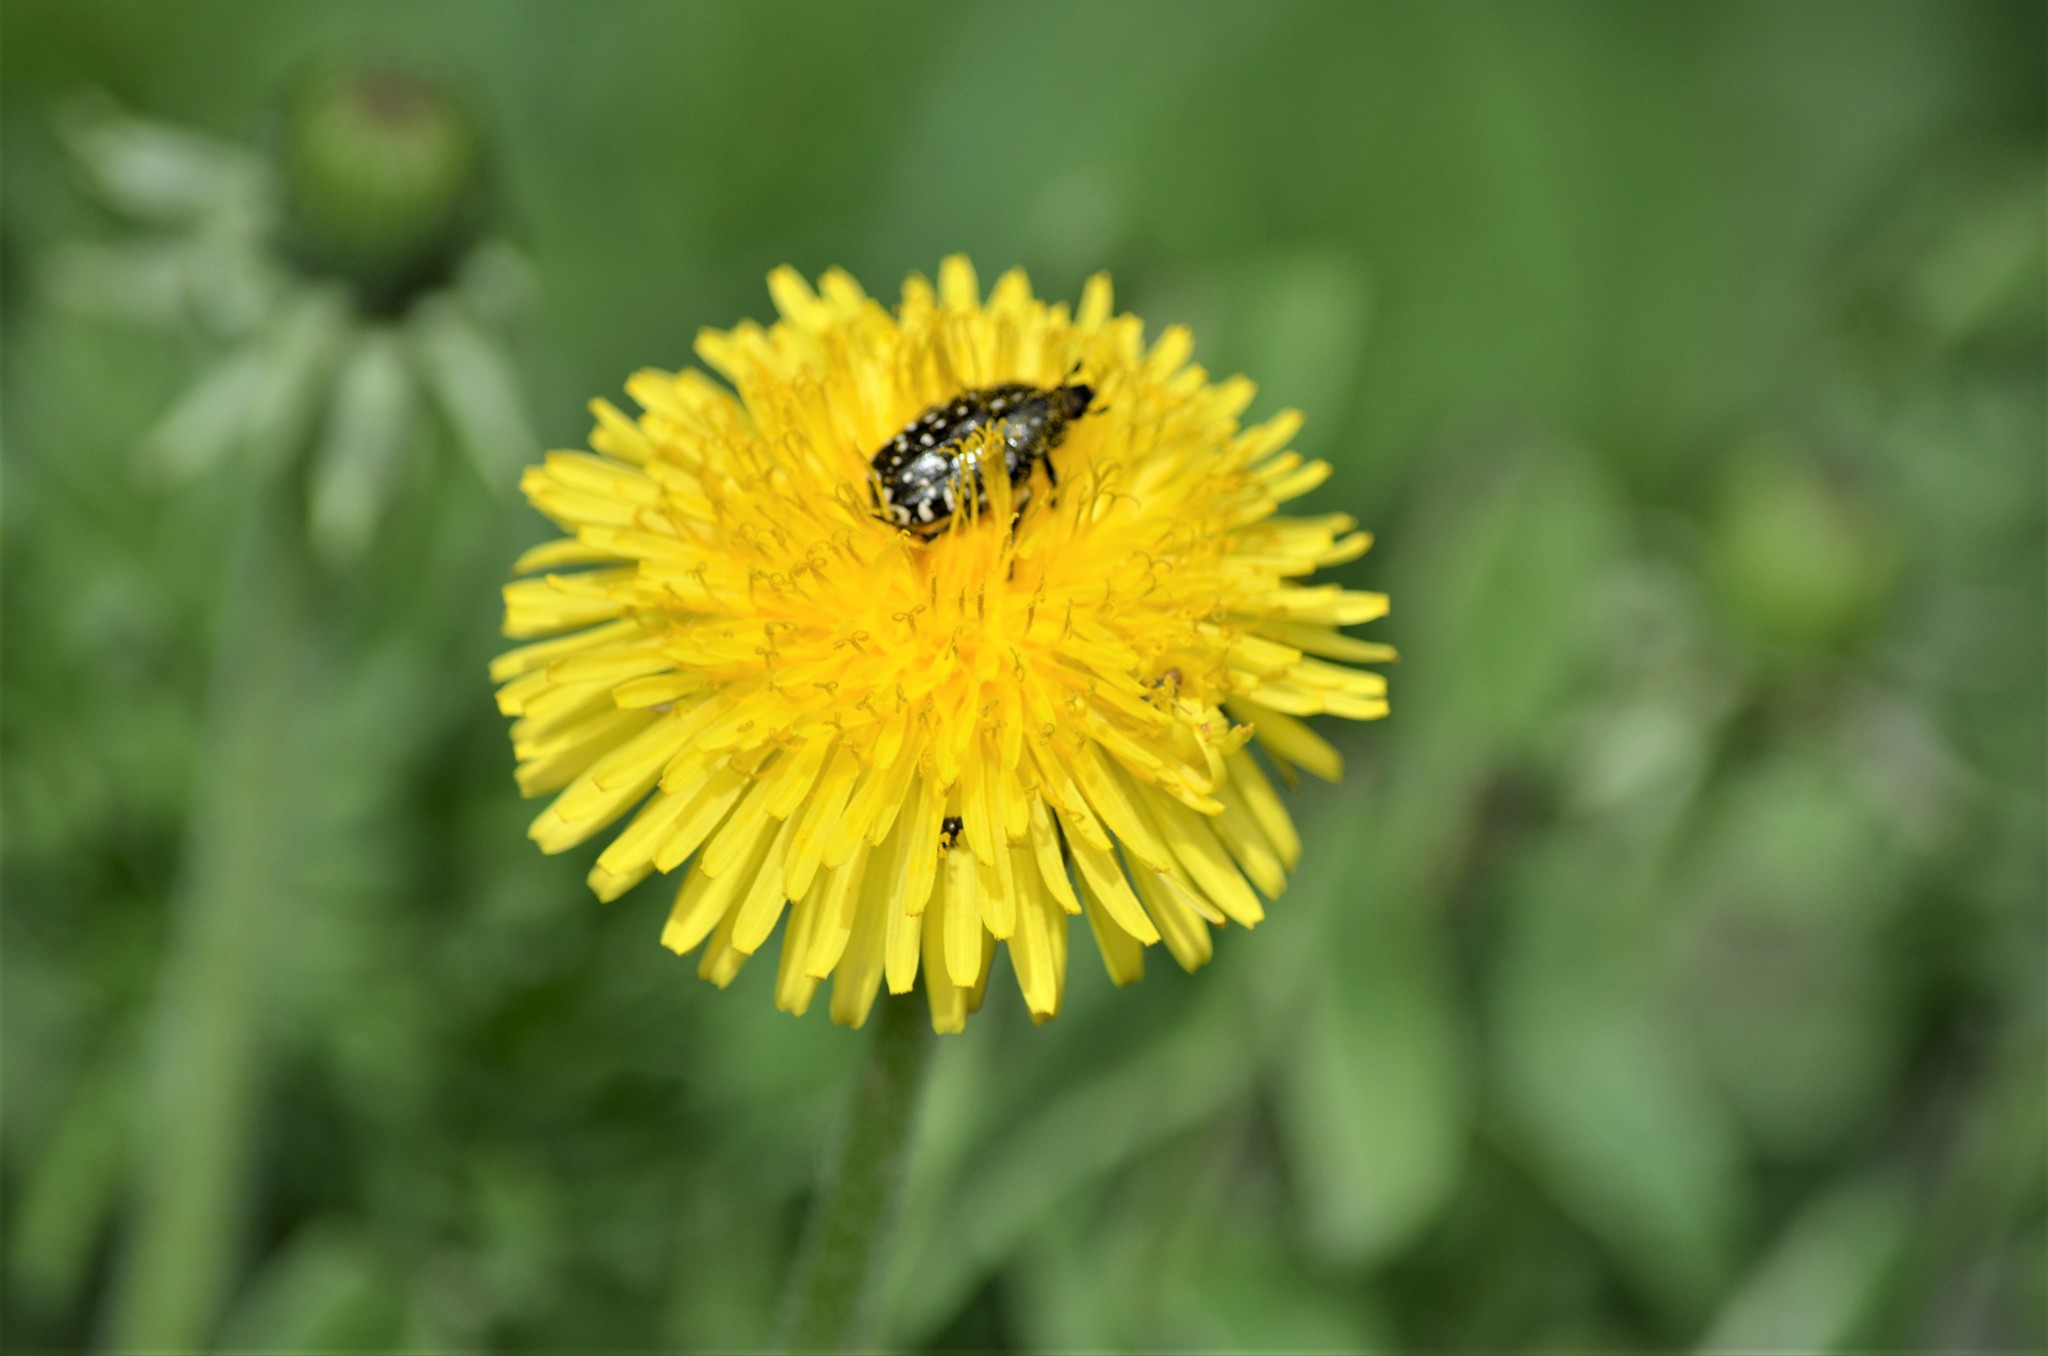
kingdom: Animalia
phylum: Arthropoda
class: Insecta
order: Coleoptera
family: Scarabaeidae
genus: Oxythyrea
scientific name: Oxythyrea funesta
